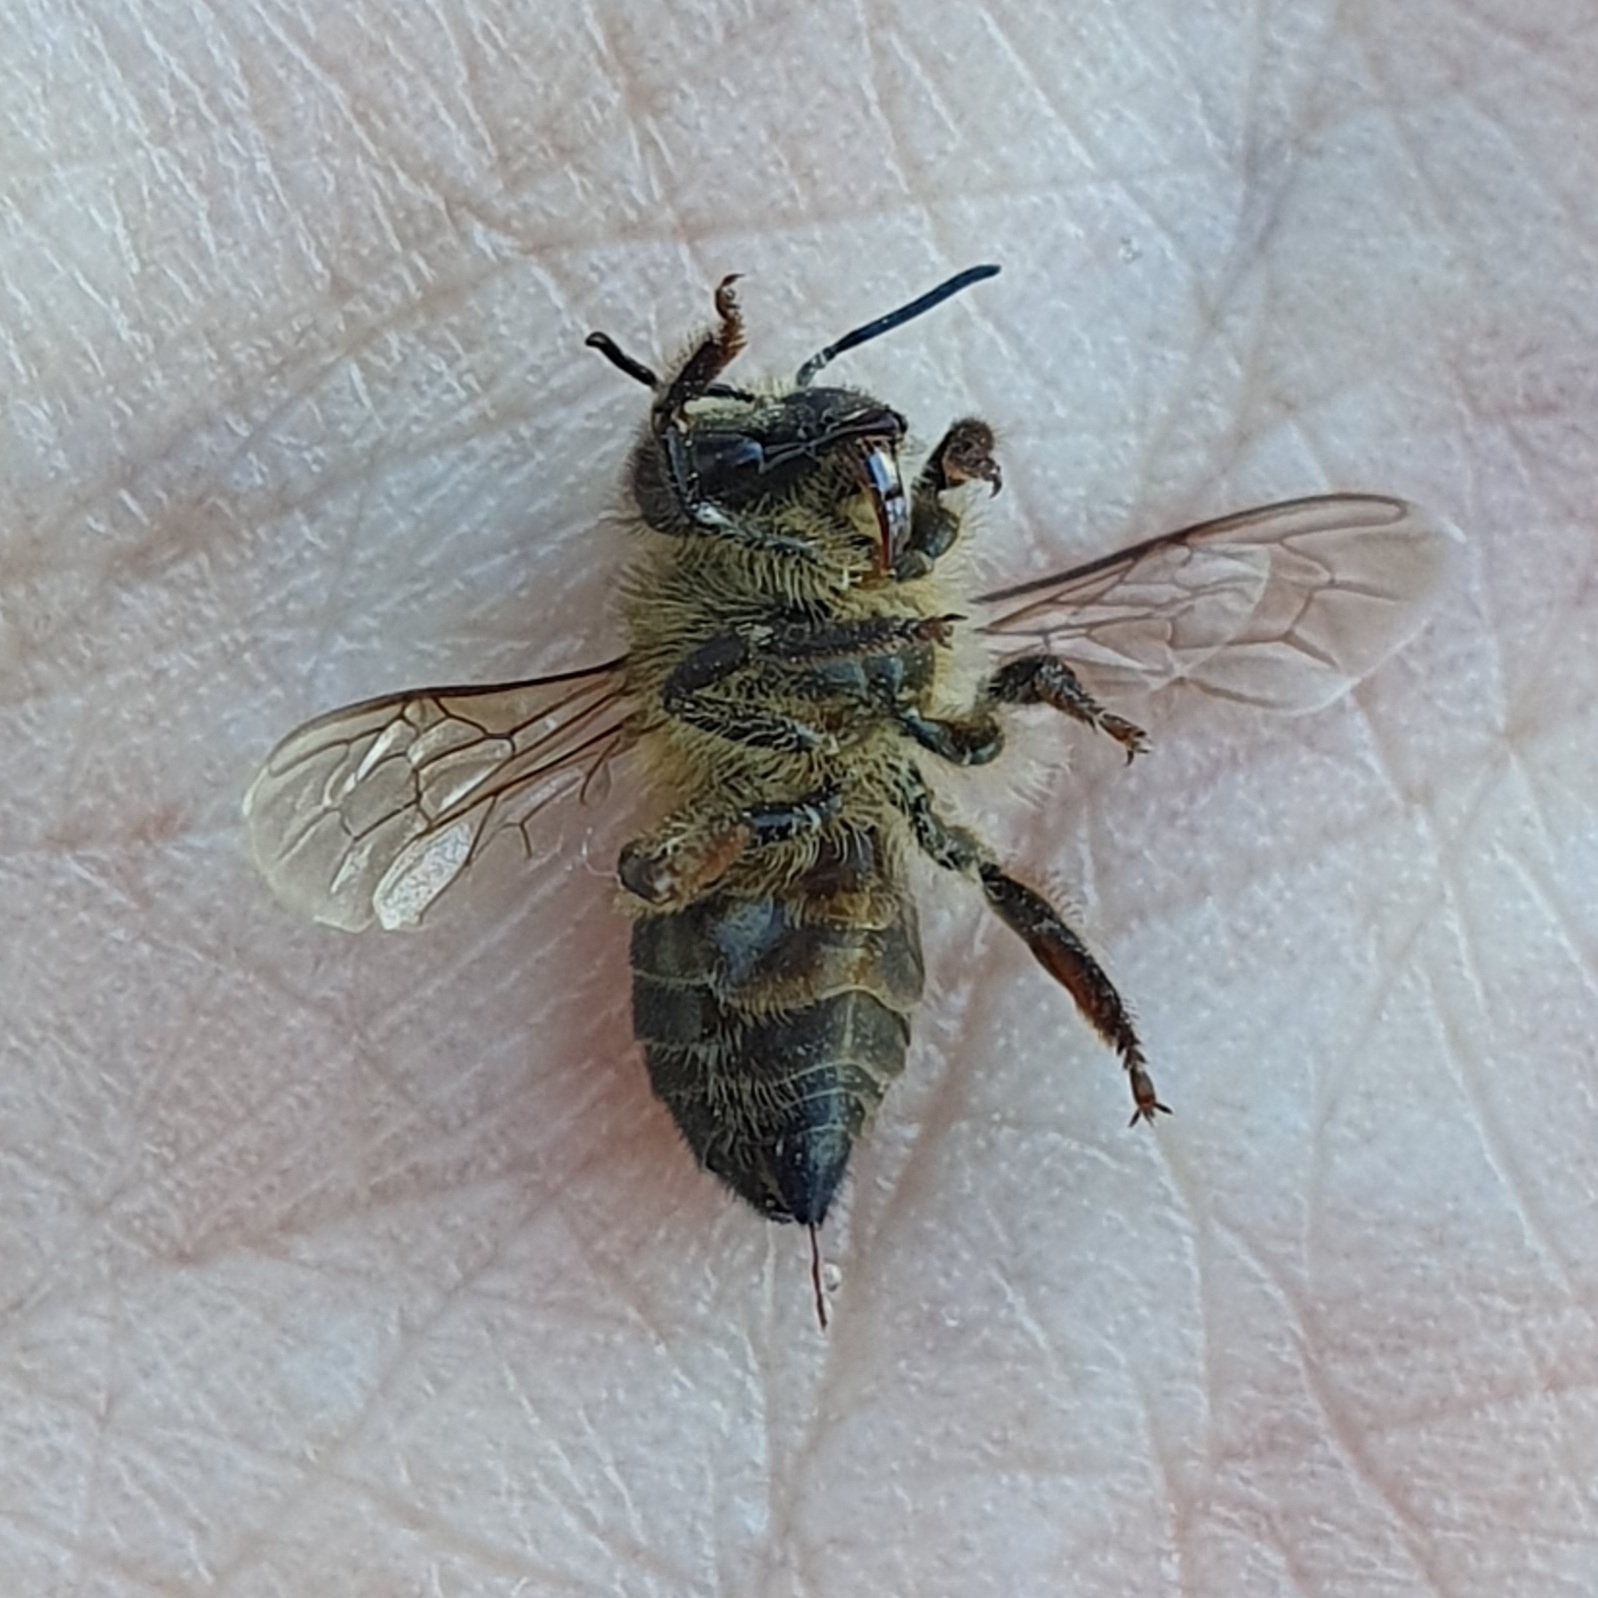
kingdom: Animalia
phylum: Arthropoda
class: Insecta
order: Hymenoptera
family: Apidae
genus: Apis
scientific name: Apis mellifera
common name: Honey bee
